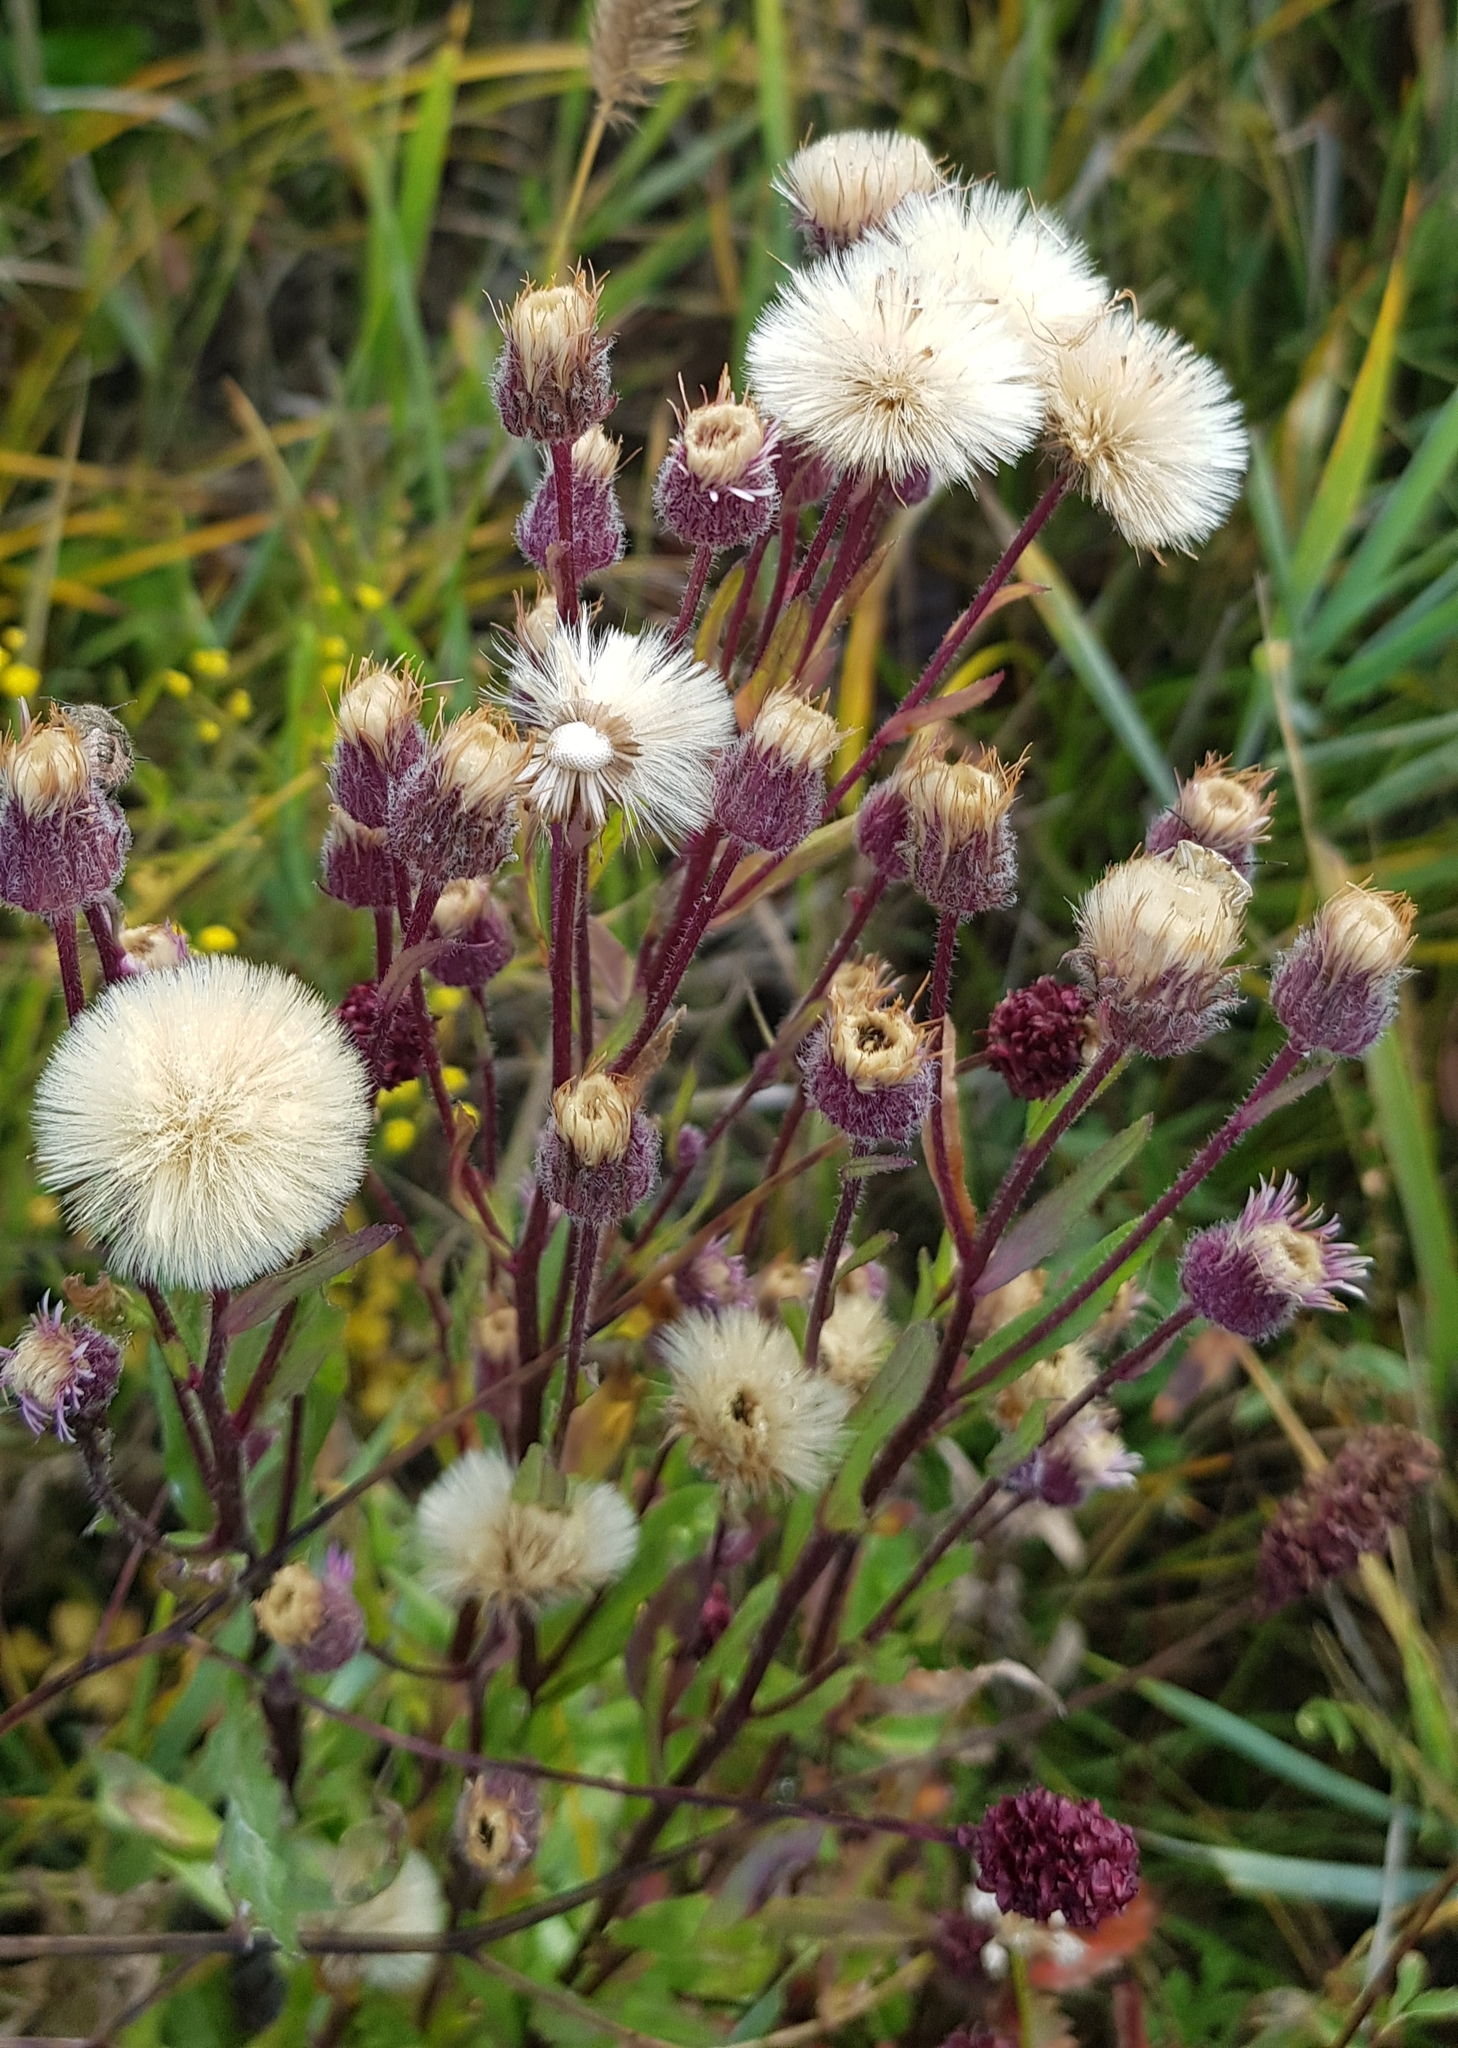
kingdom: Plantae
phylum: Tracheophyta
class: Magnoliopsida
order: Asterales
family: Asteraceae
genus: Erigeron
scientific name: Erigeron acris
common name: Blue fleabane
